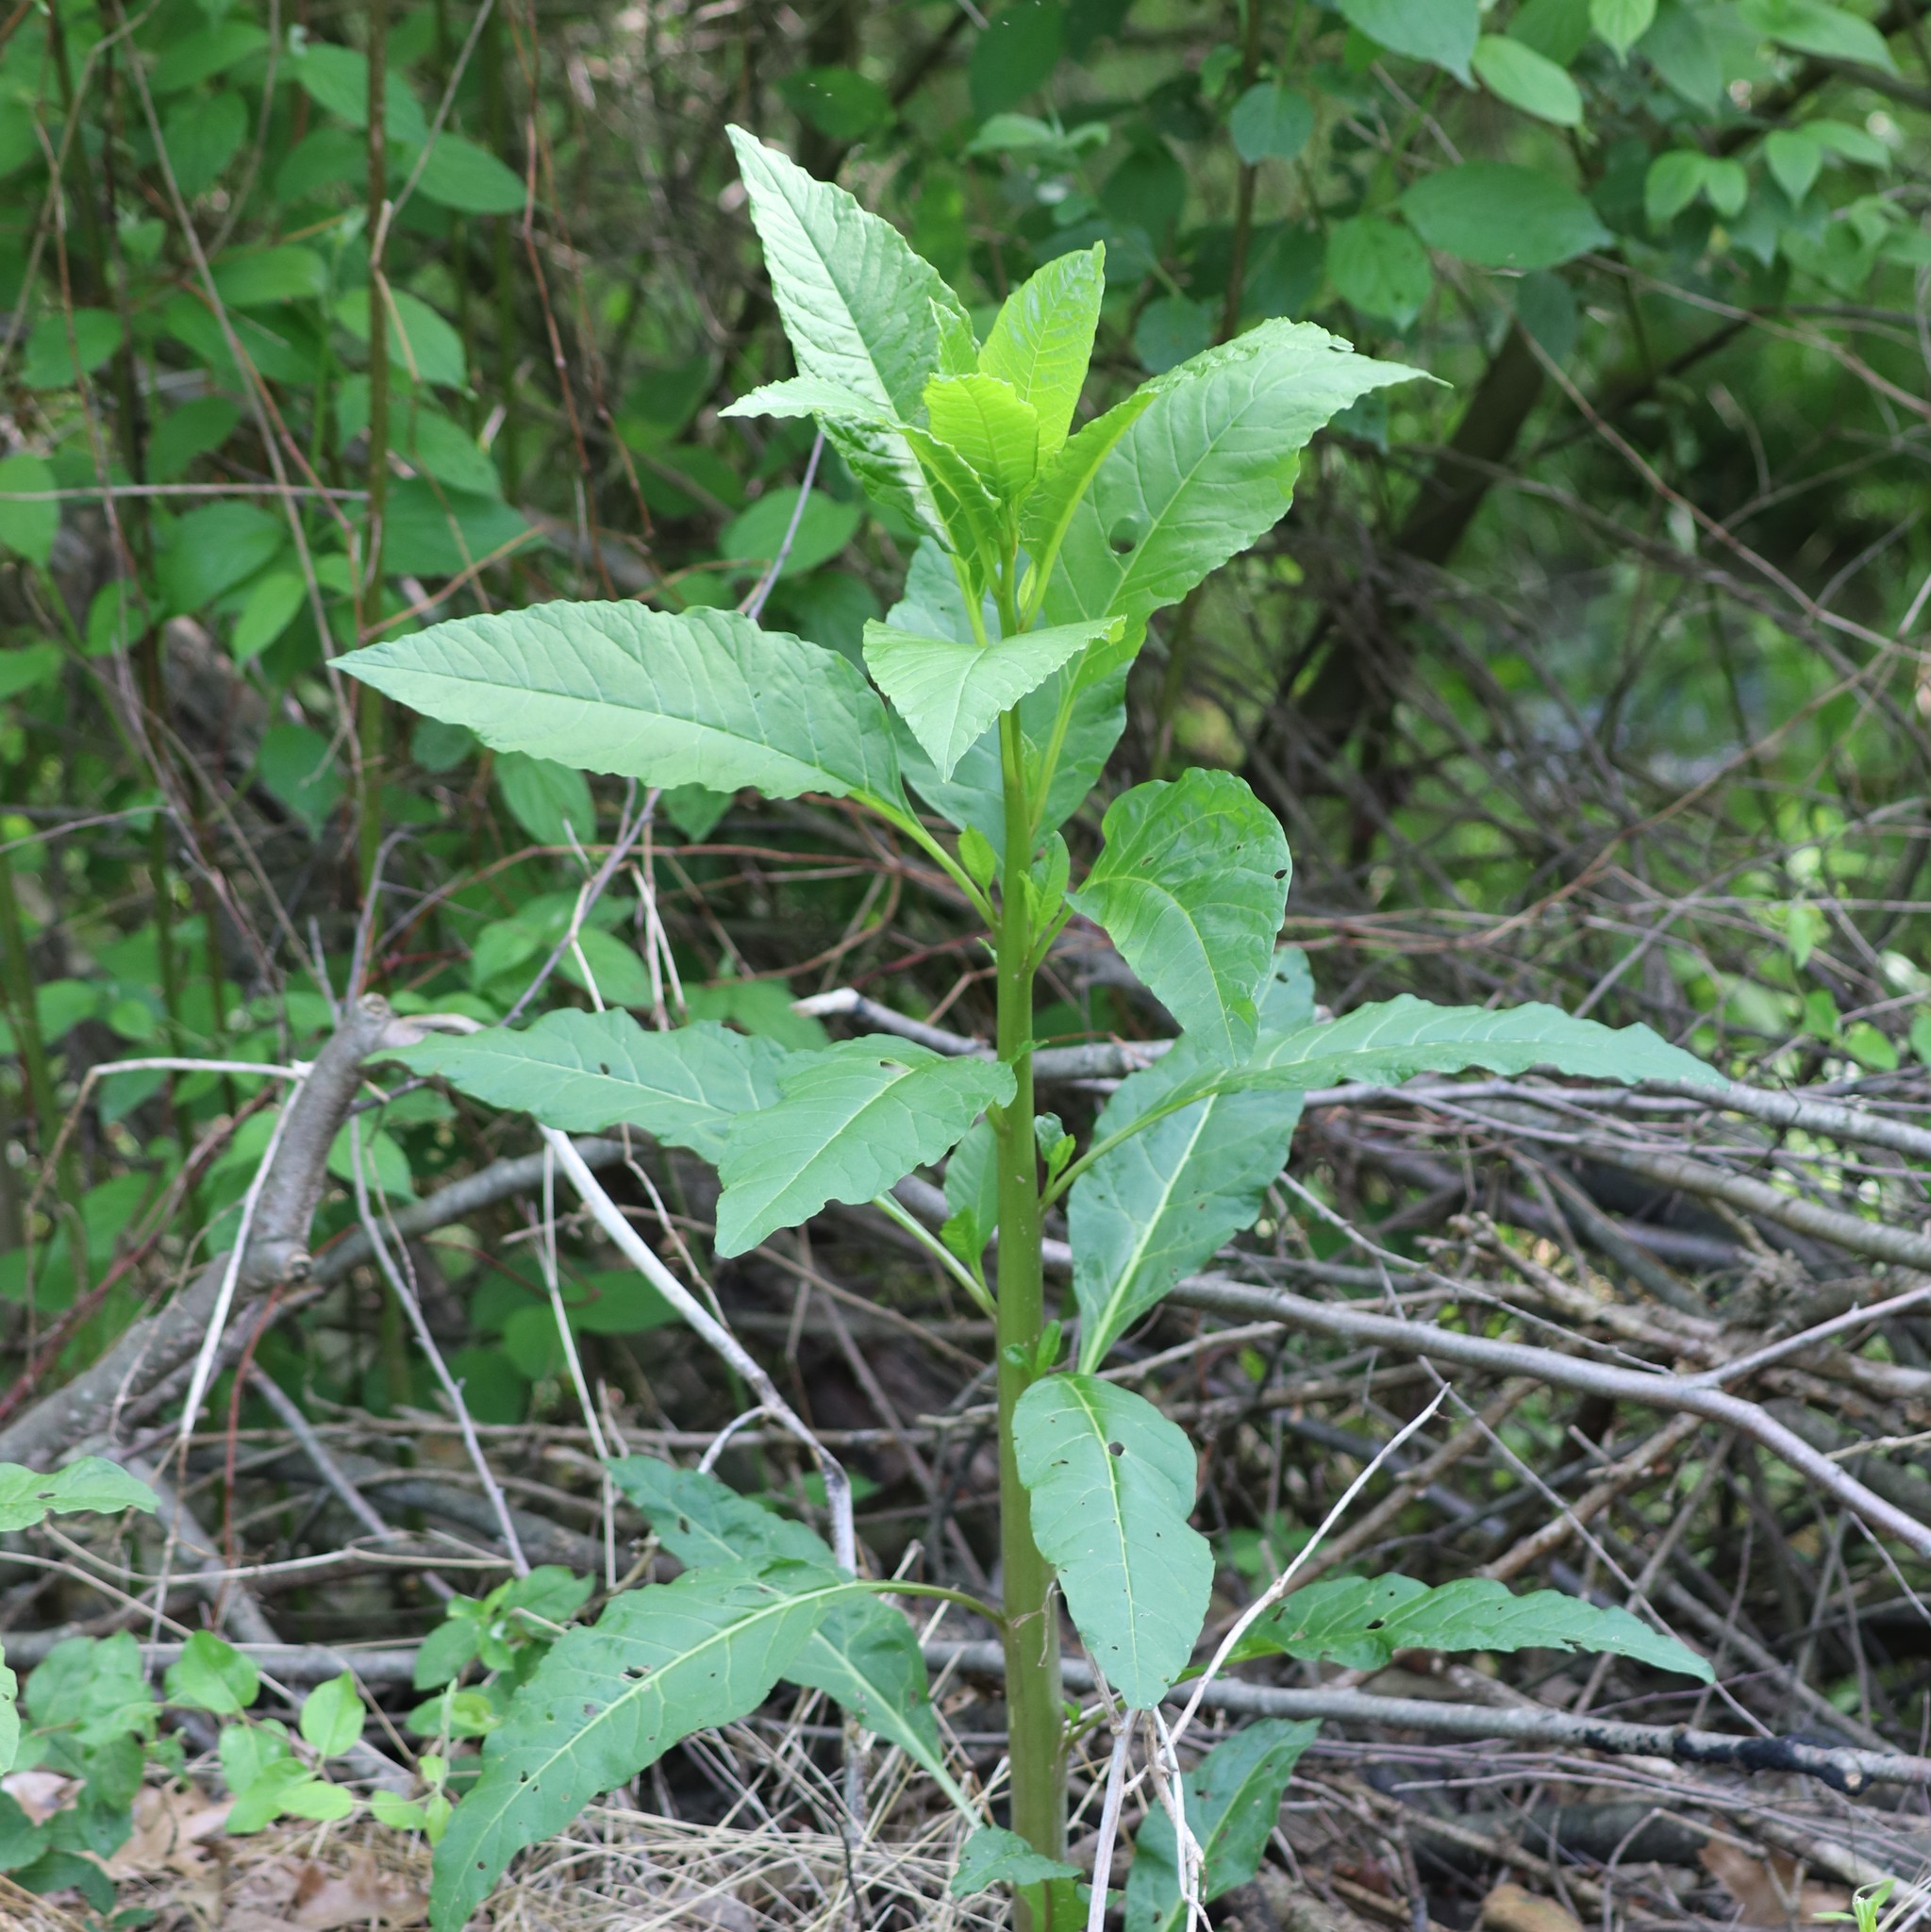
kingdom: Plantae
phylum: Tracheophyta
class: Magnoliopsida
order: Caryophyllales
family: Phytolaccaceae
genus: Phytolacca
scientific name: Phytolacca americana
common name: American pokeweed
